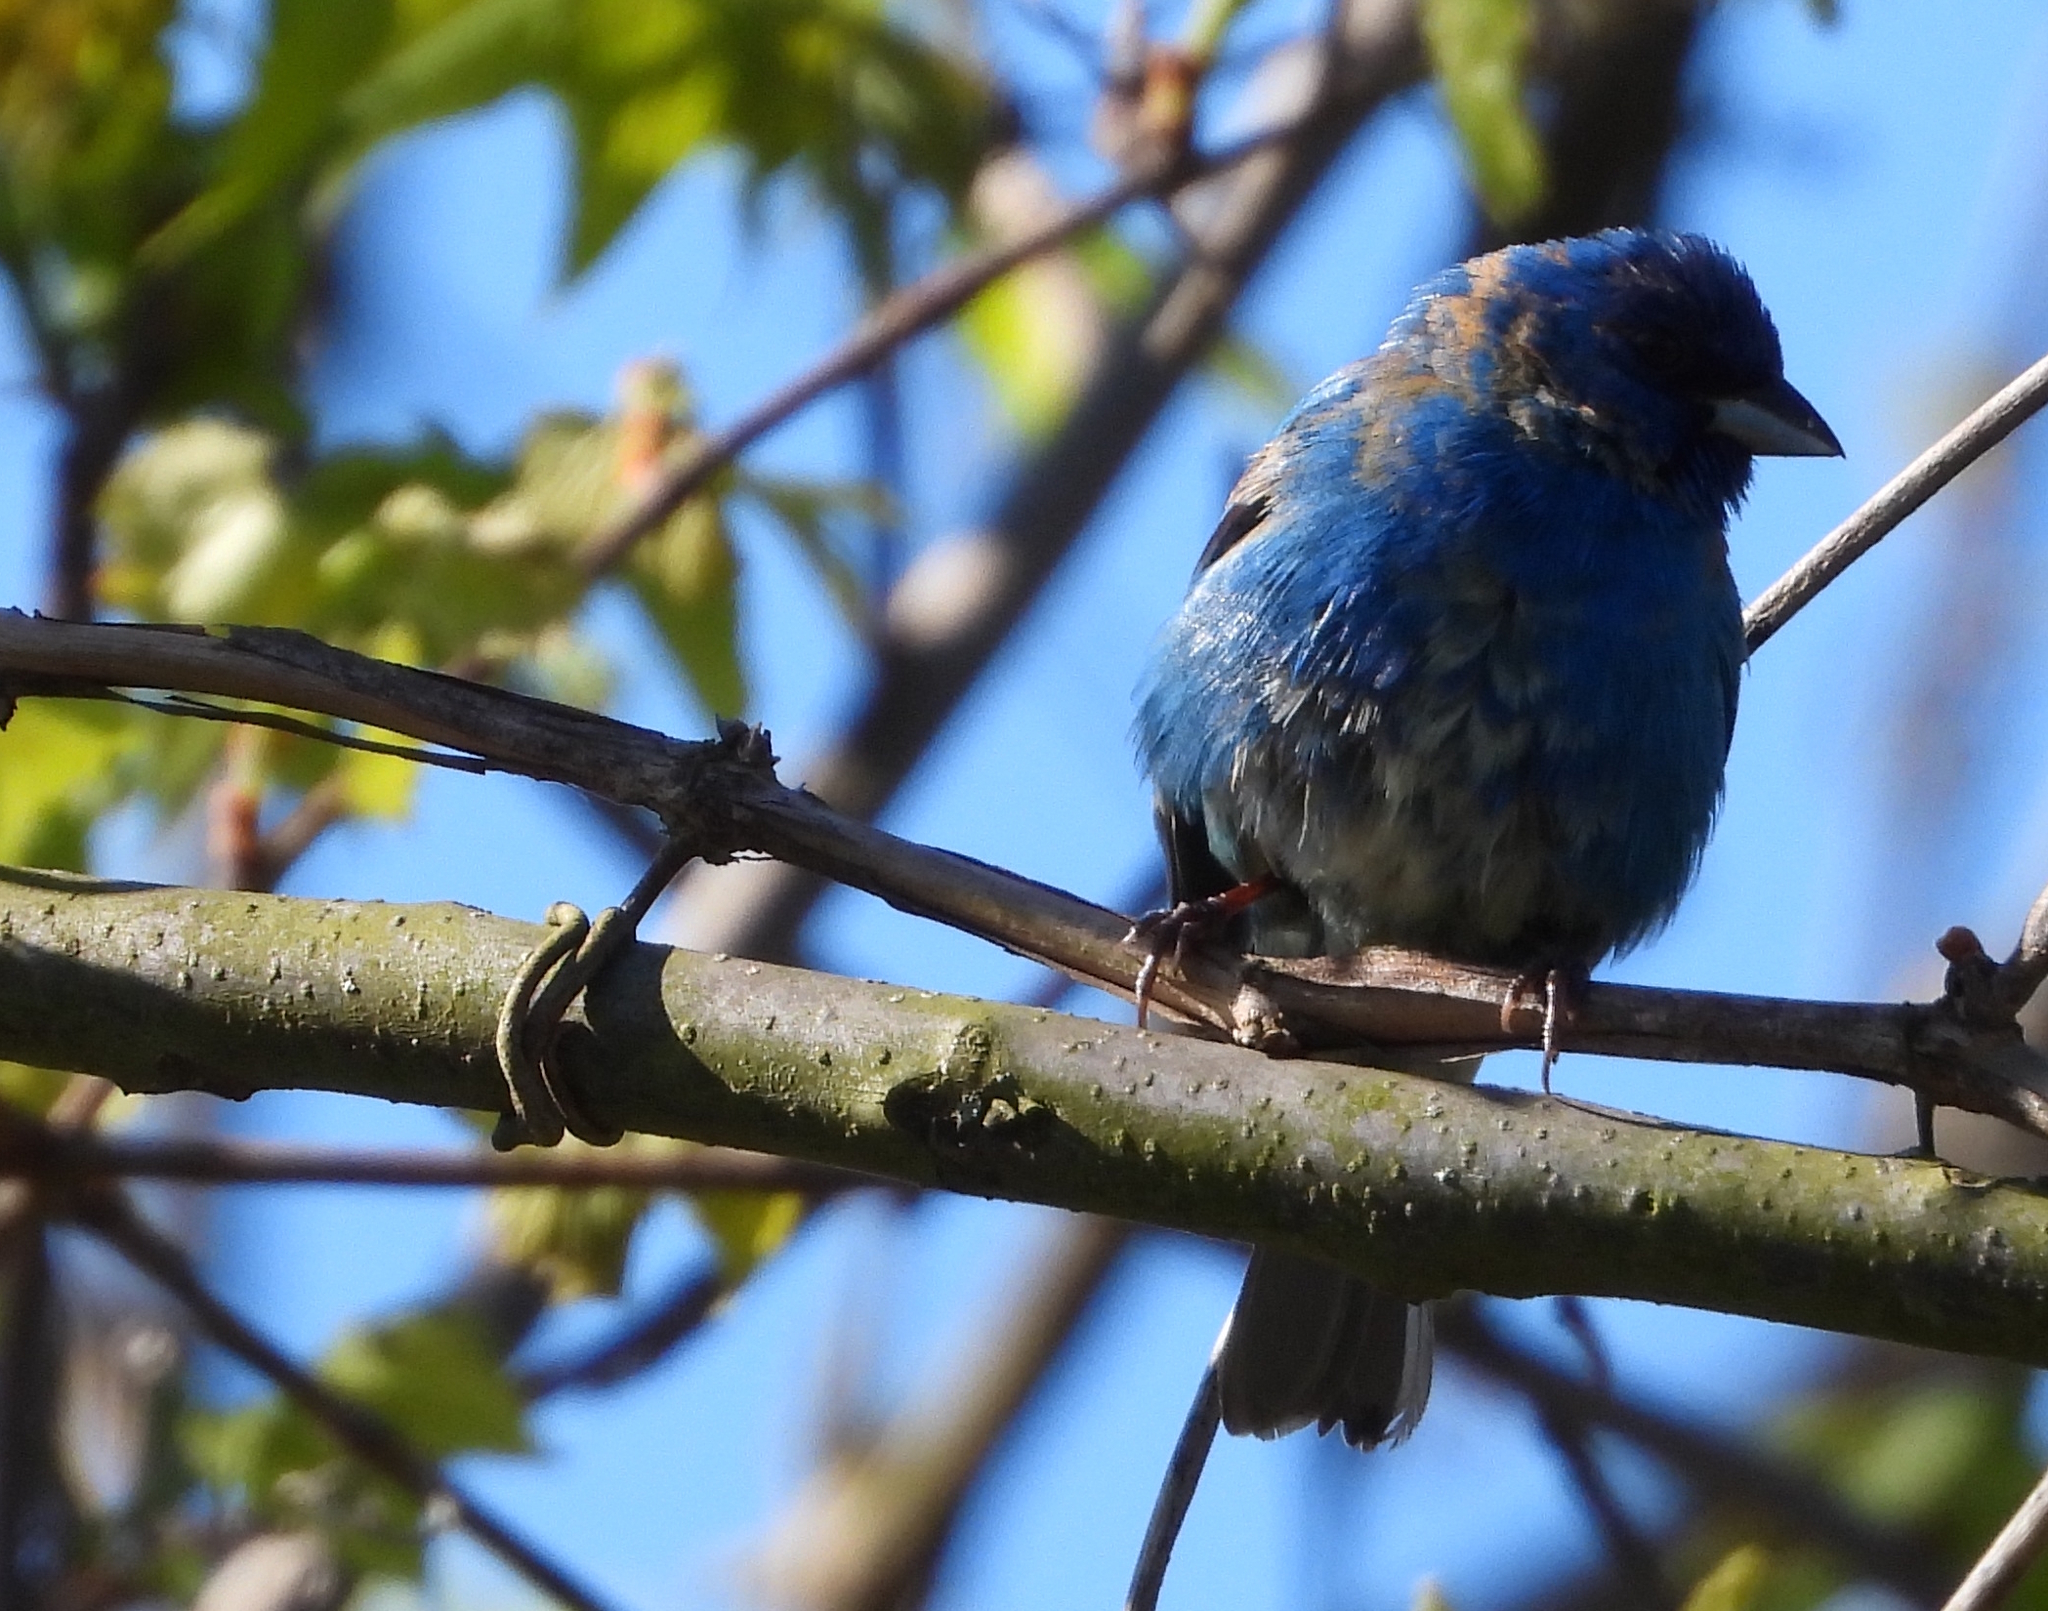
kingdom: Animalia
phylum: Chordata
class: Aves
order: Passeriformes
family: Cardinalidae
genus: Passerina
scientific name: Passerina cyanea
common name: Indigo bunting
